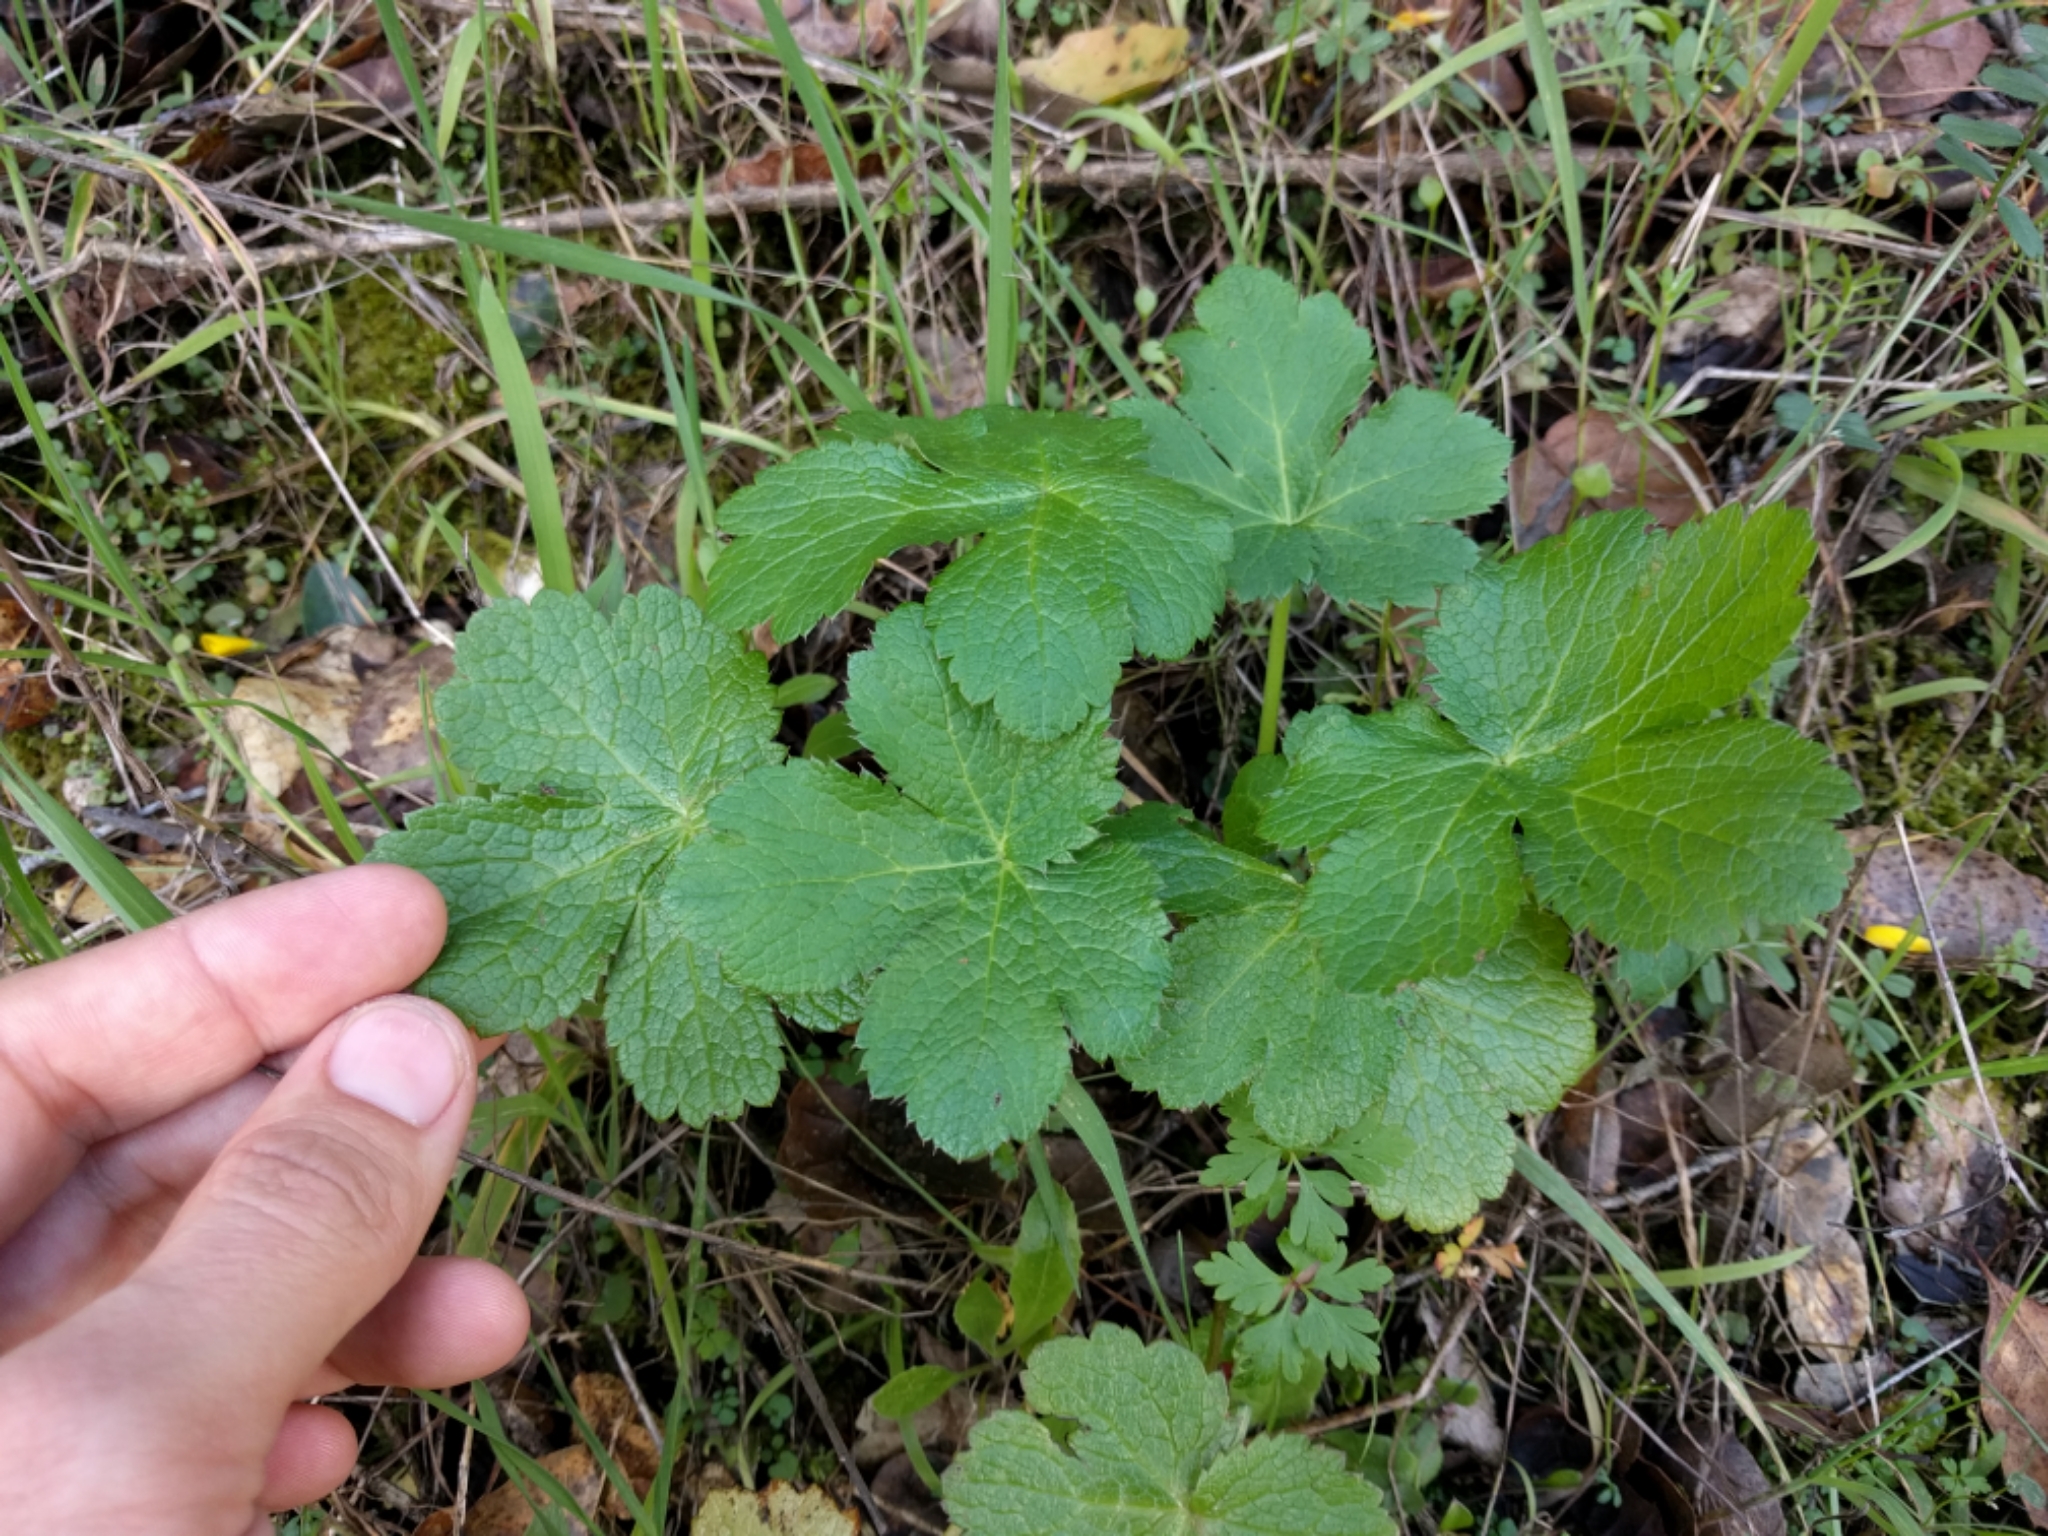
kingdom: Plantae
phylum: Tracheophyta
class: Magnoliopsida
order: Apiales
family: Apiaceae
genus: Sanicula
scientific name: Sanicula crassicaulis
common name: Western snakeroot
